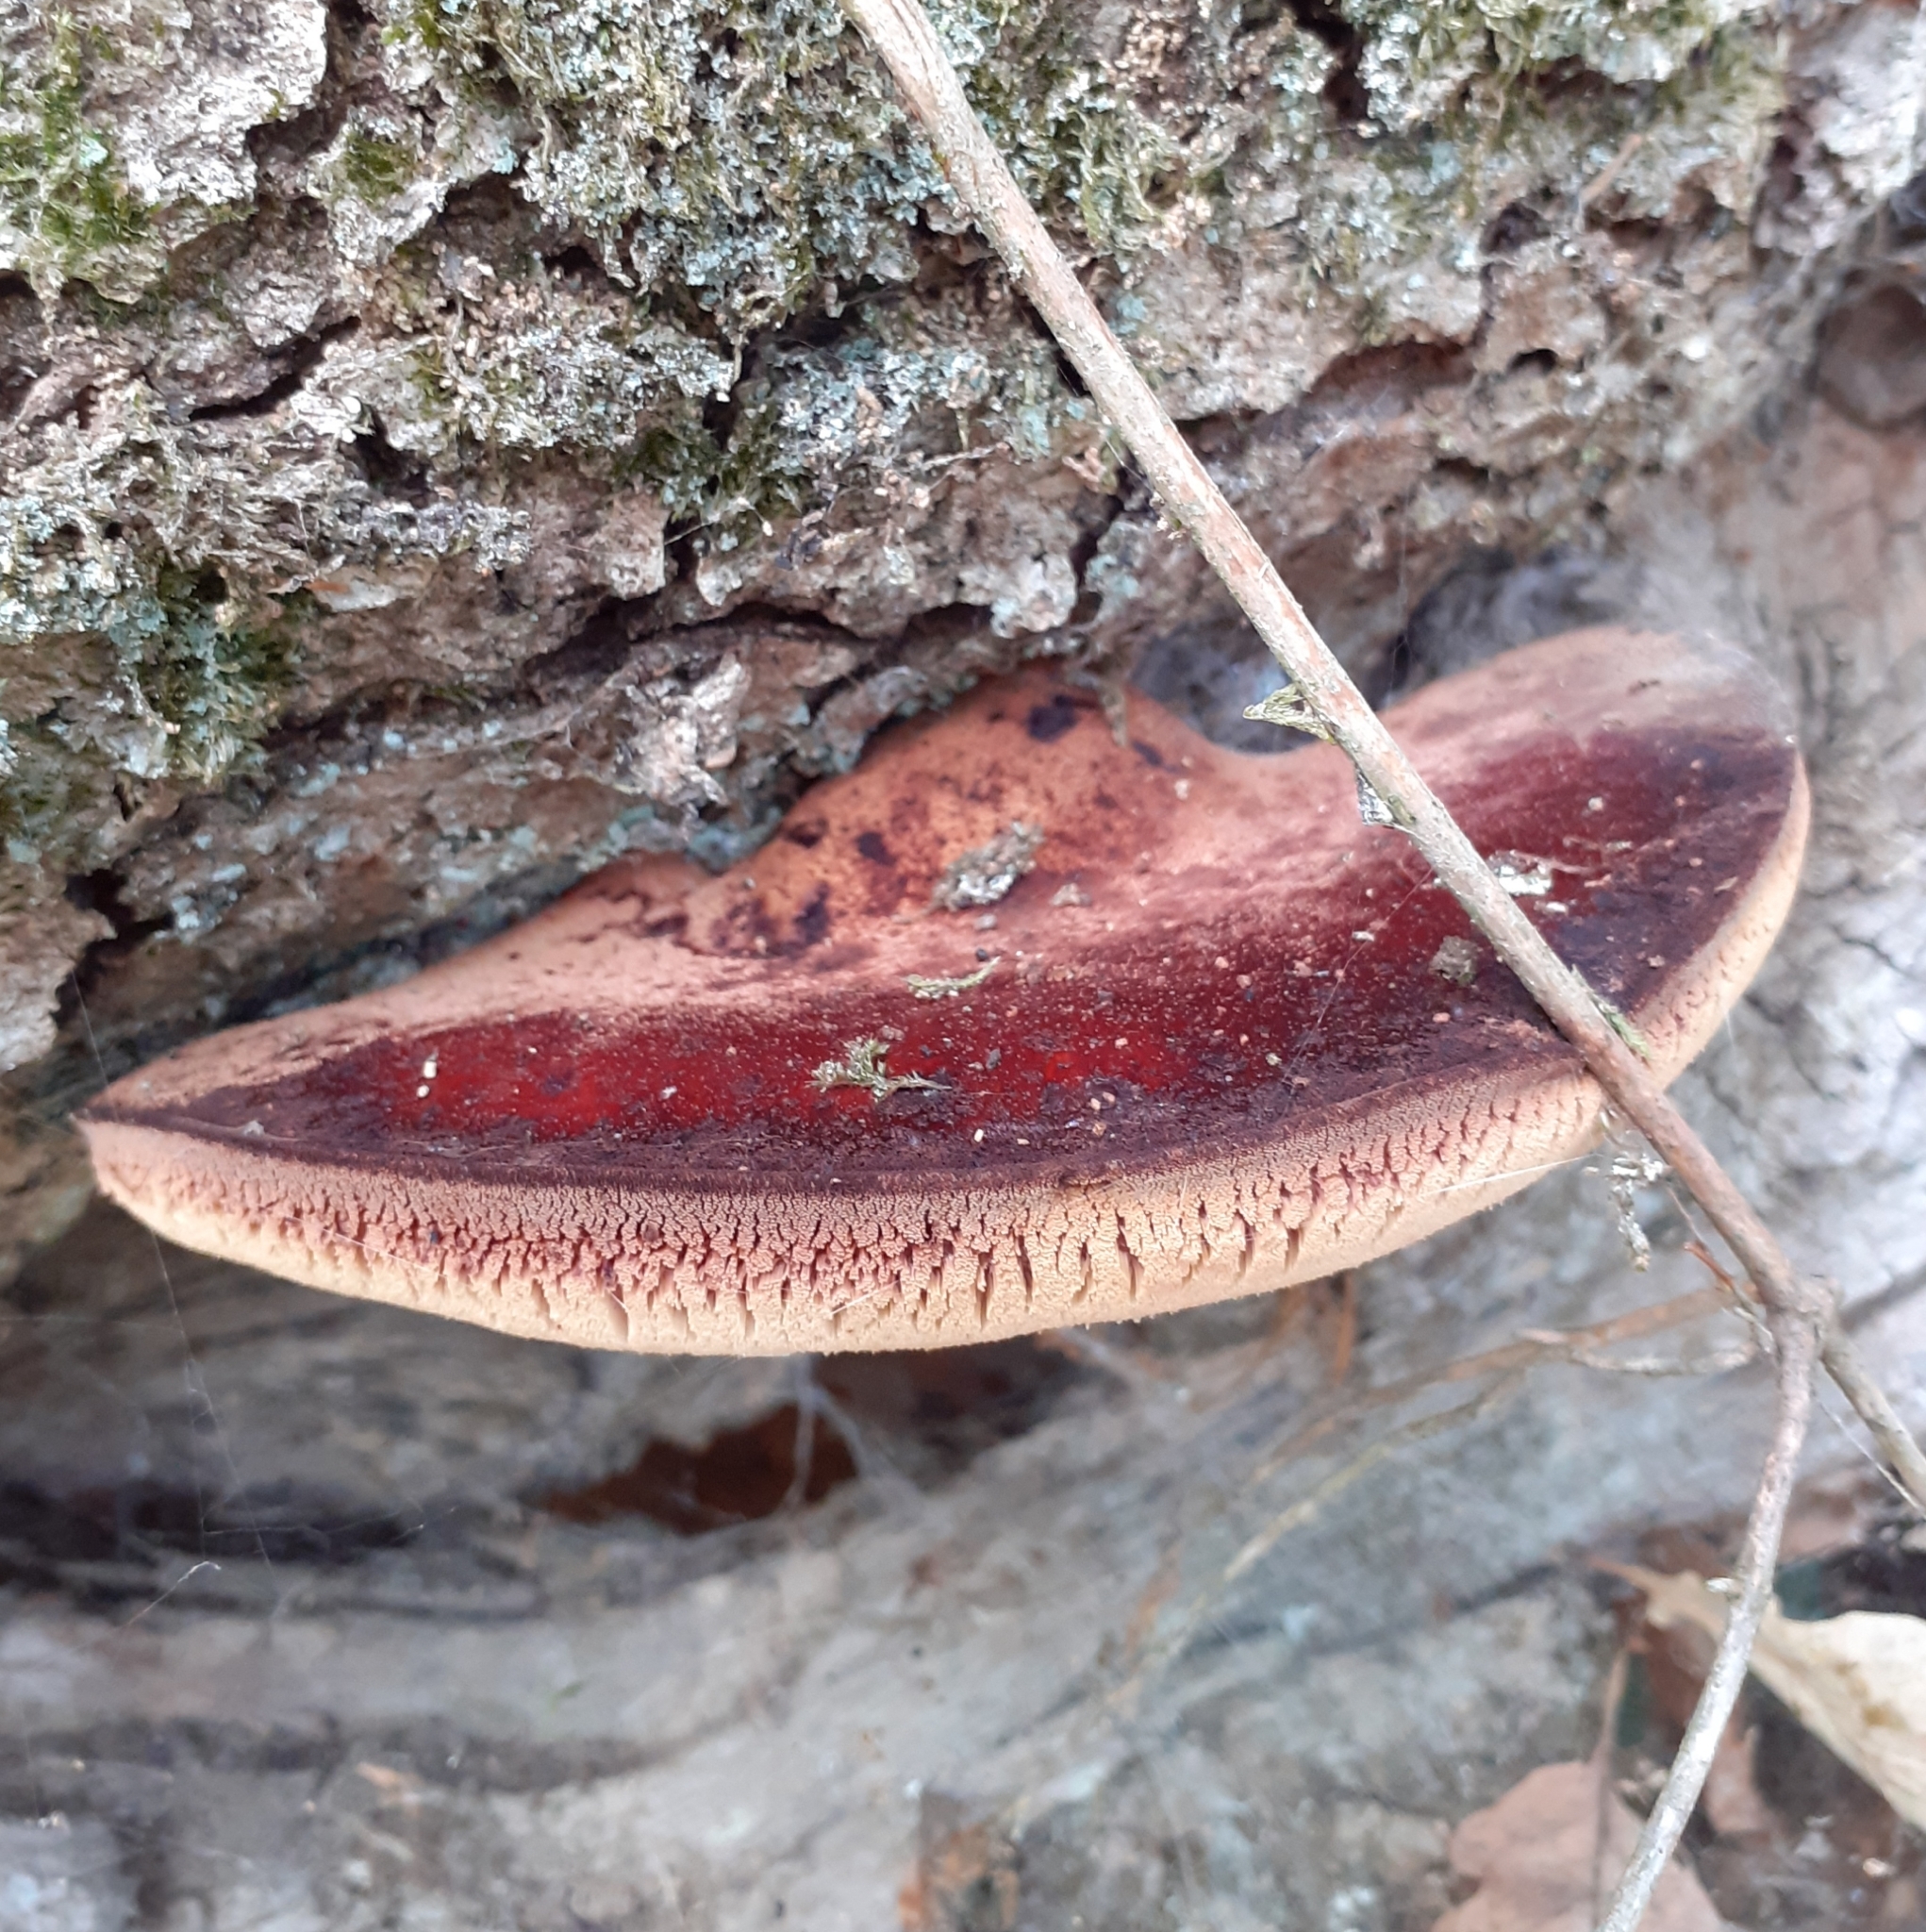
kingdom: Fungi
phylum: Basidiomycota
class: Agaricomycetes
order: Agaricales
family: Fistulinaceae
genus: Fistulina
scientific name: Fistulina hepatica
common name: Beef-steak fungus
